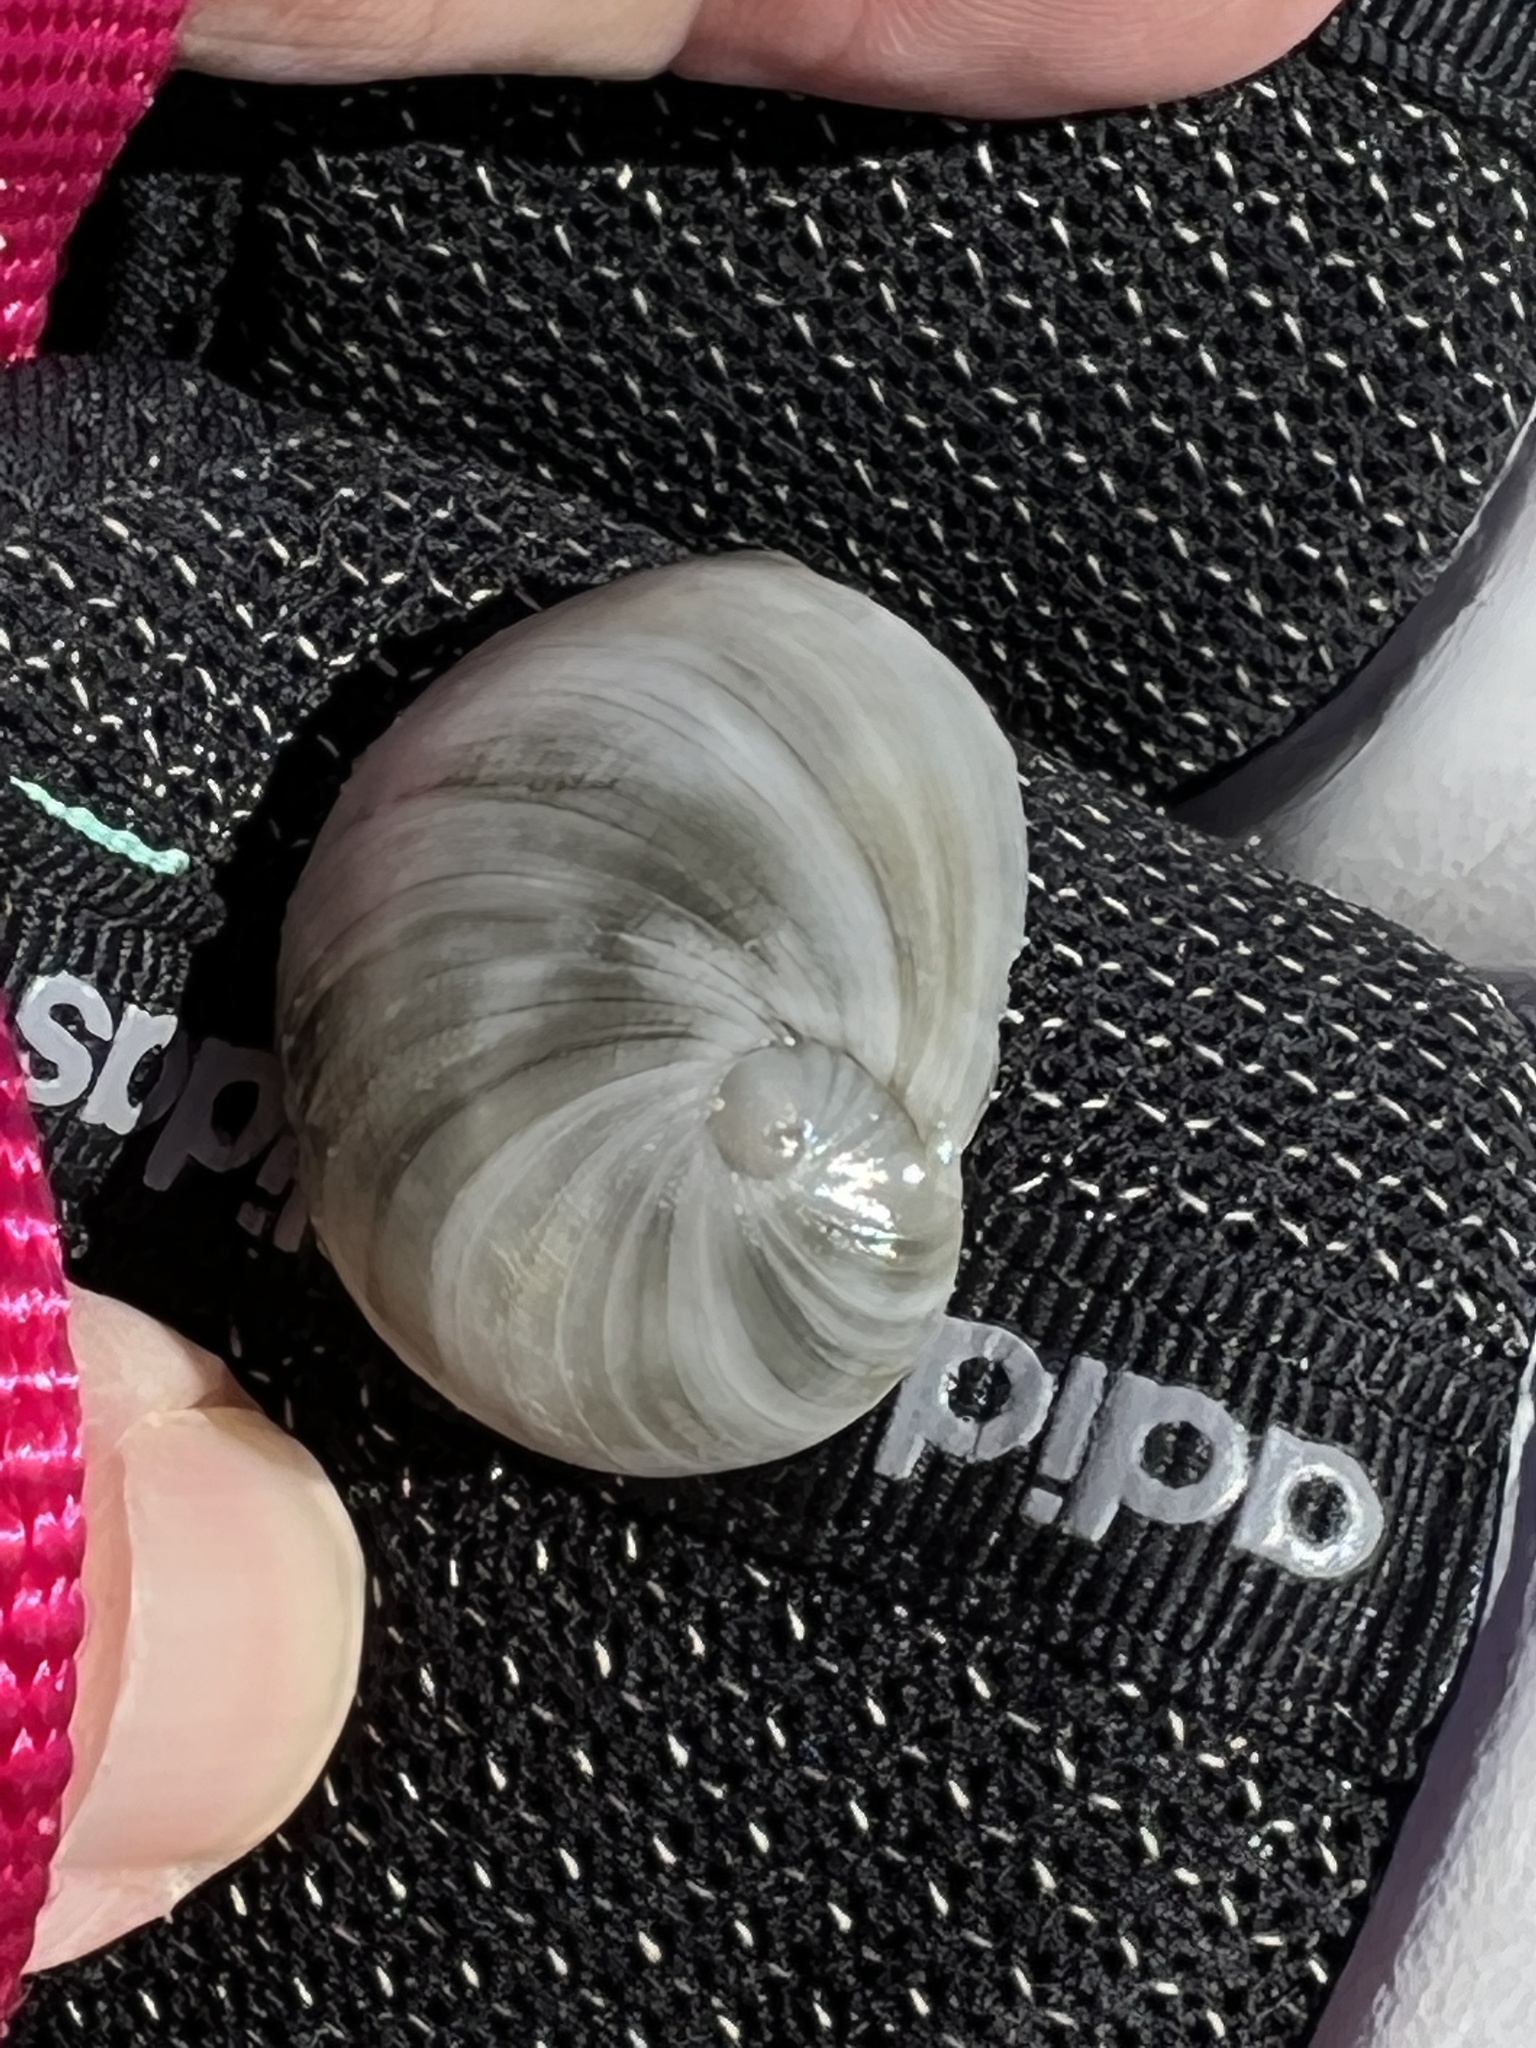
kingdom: Animalia
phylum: Mollusca
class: Gastropoda
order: Littorinimorpha
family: Naticidae
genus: Sinum
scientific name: Sinum perspectivum
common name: White baby ear
